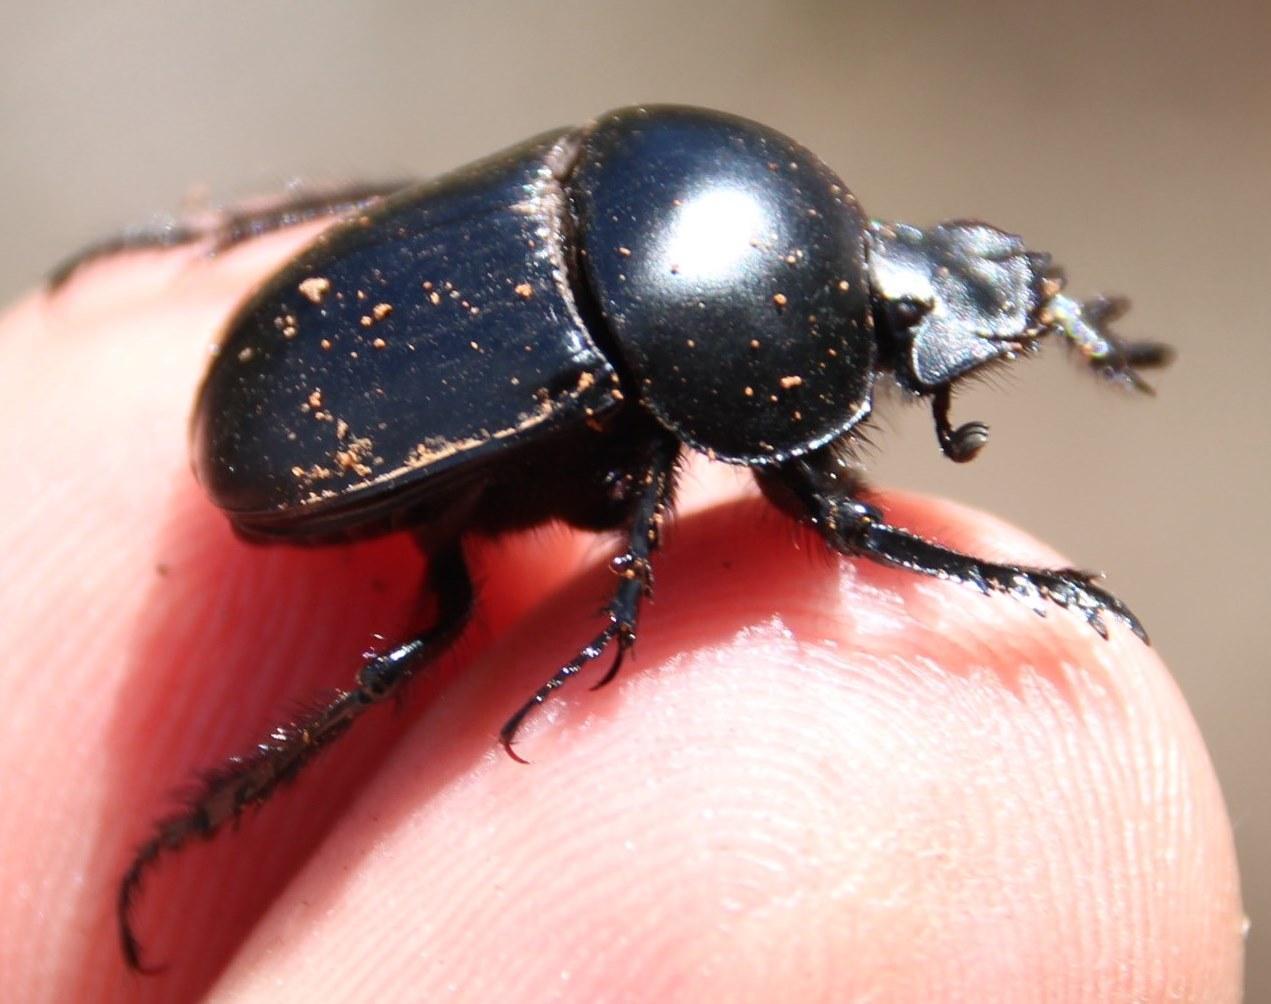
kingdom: Animalia
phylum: Arthropoda
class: Insecta
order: Coleoptera
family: Scarabaeidae
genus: Scarabaeus
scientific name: Scarabaeus convexus
